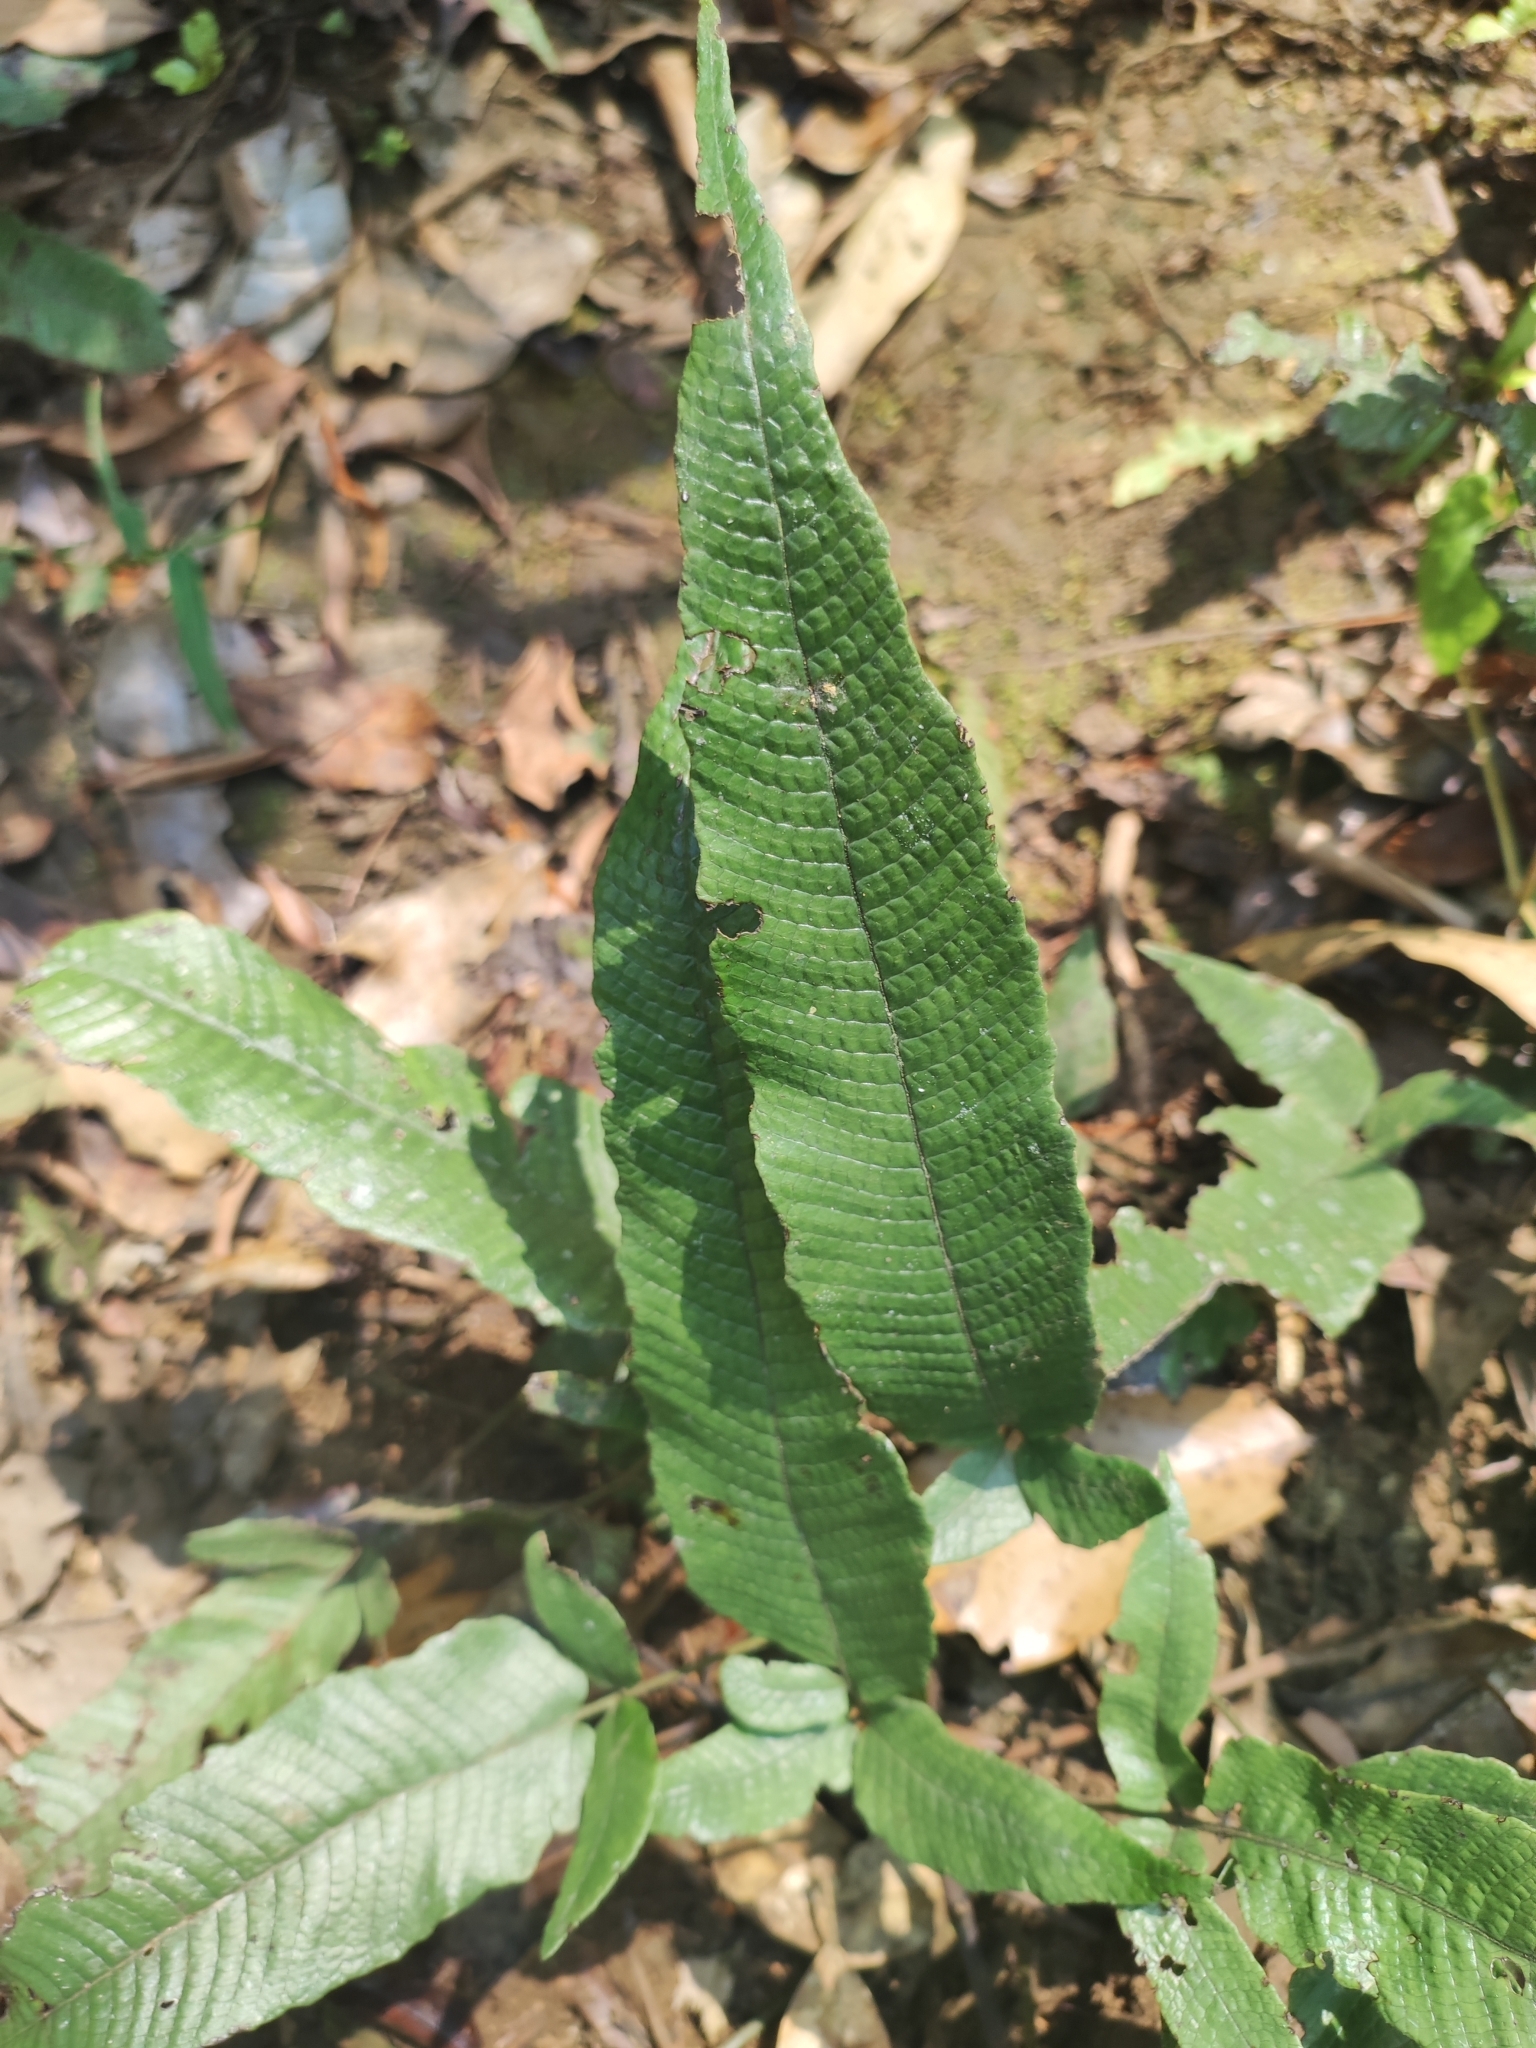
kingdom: Plantae
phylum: Tracheophyta
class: Polypodiopsida
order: Polypodiales
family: Thelypteridaceae
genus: Grypothrix
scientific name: Grypothrix triphylla
